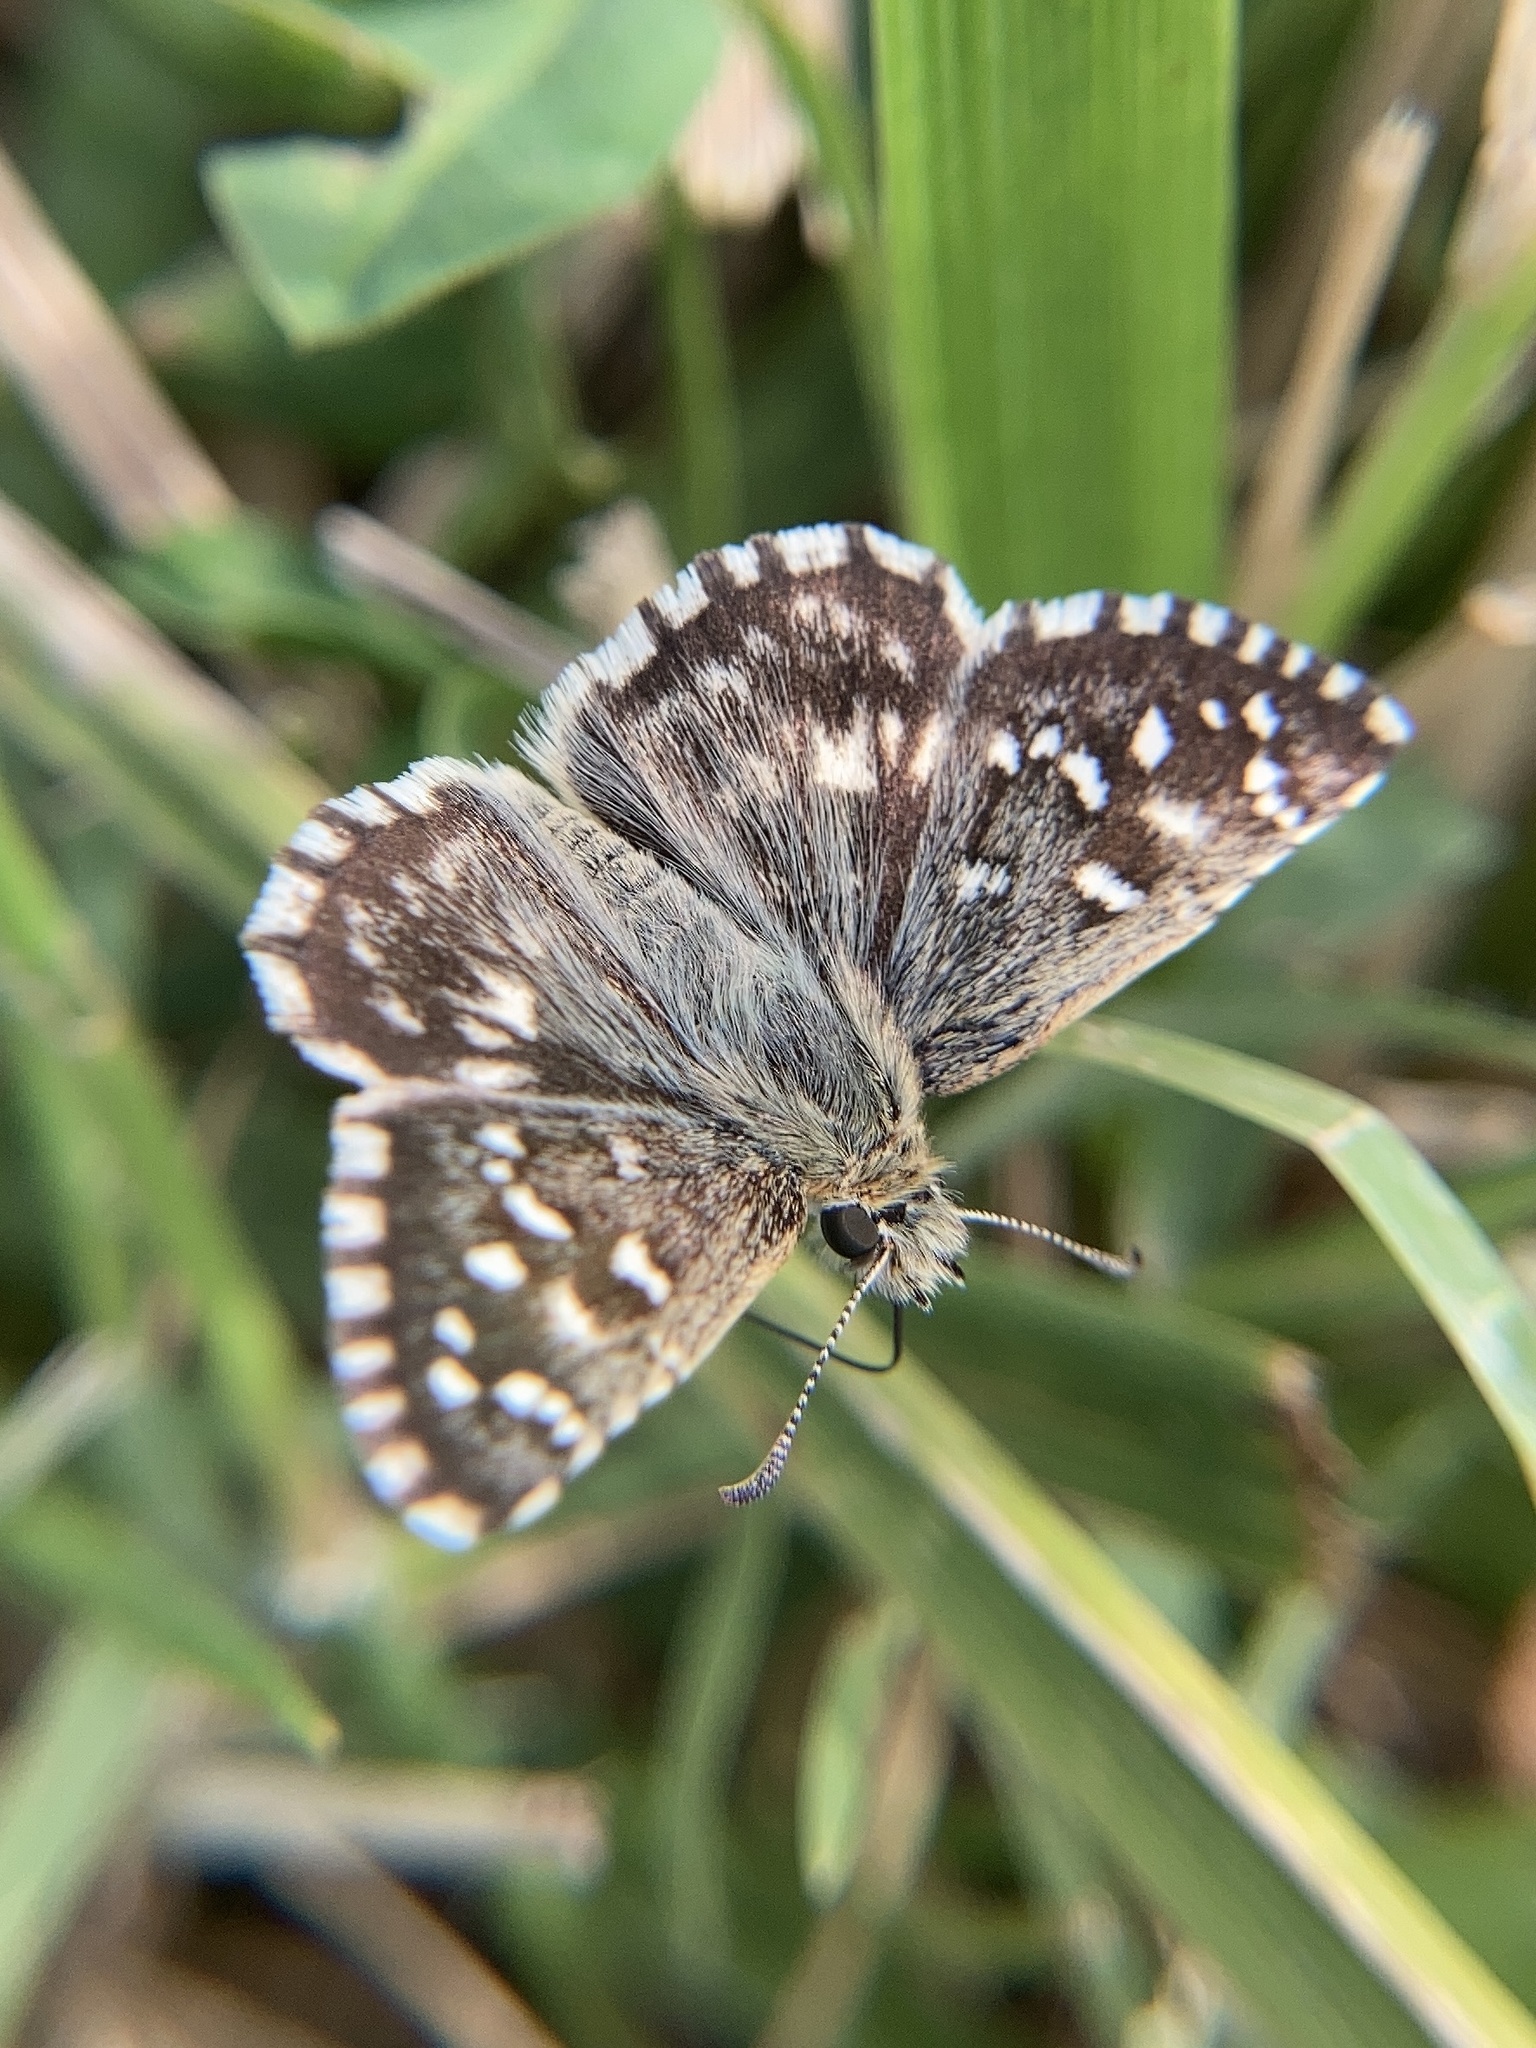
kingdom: Animalia
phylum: Arthropoda
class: Insecta
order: Lepidoptera
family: Hesperiidae
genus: Pyrgus
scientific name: Pyrgus malvoides
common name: Southern grizzled skipper
